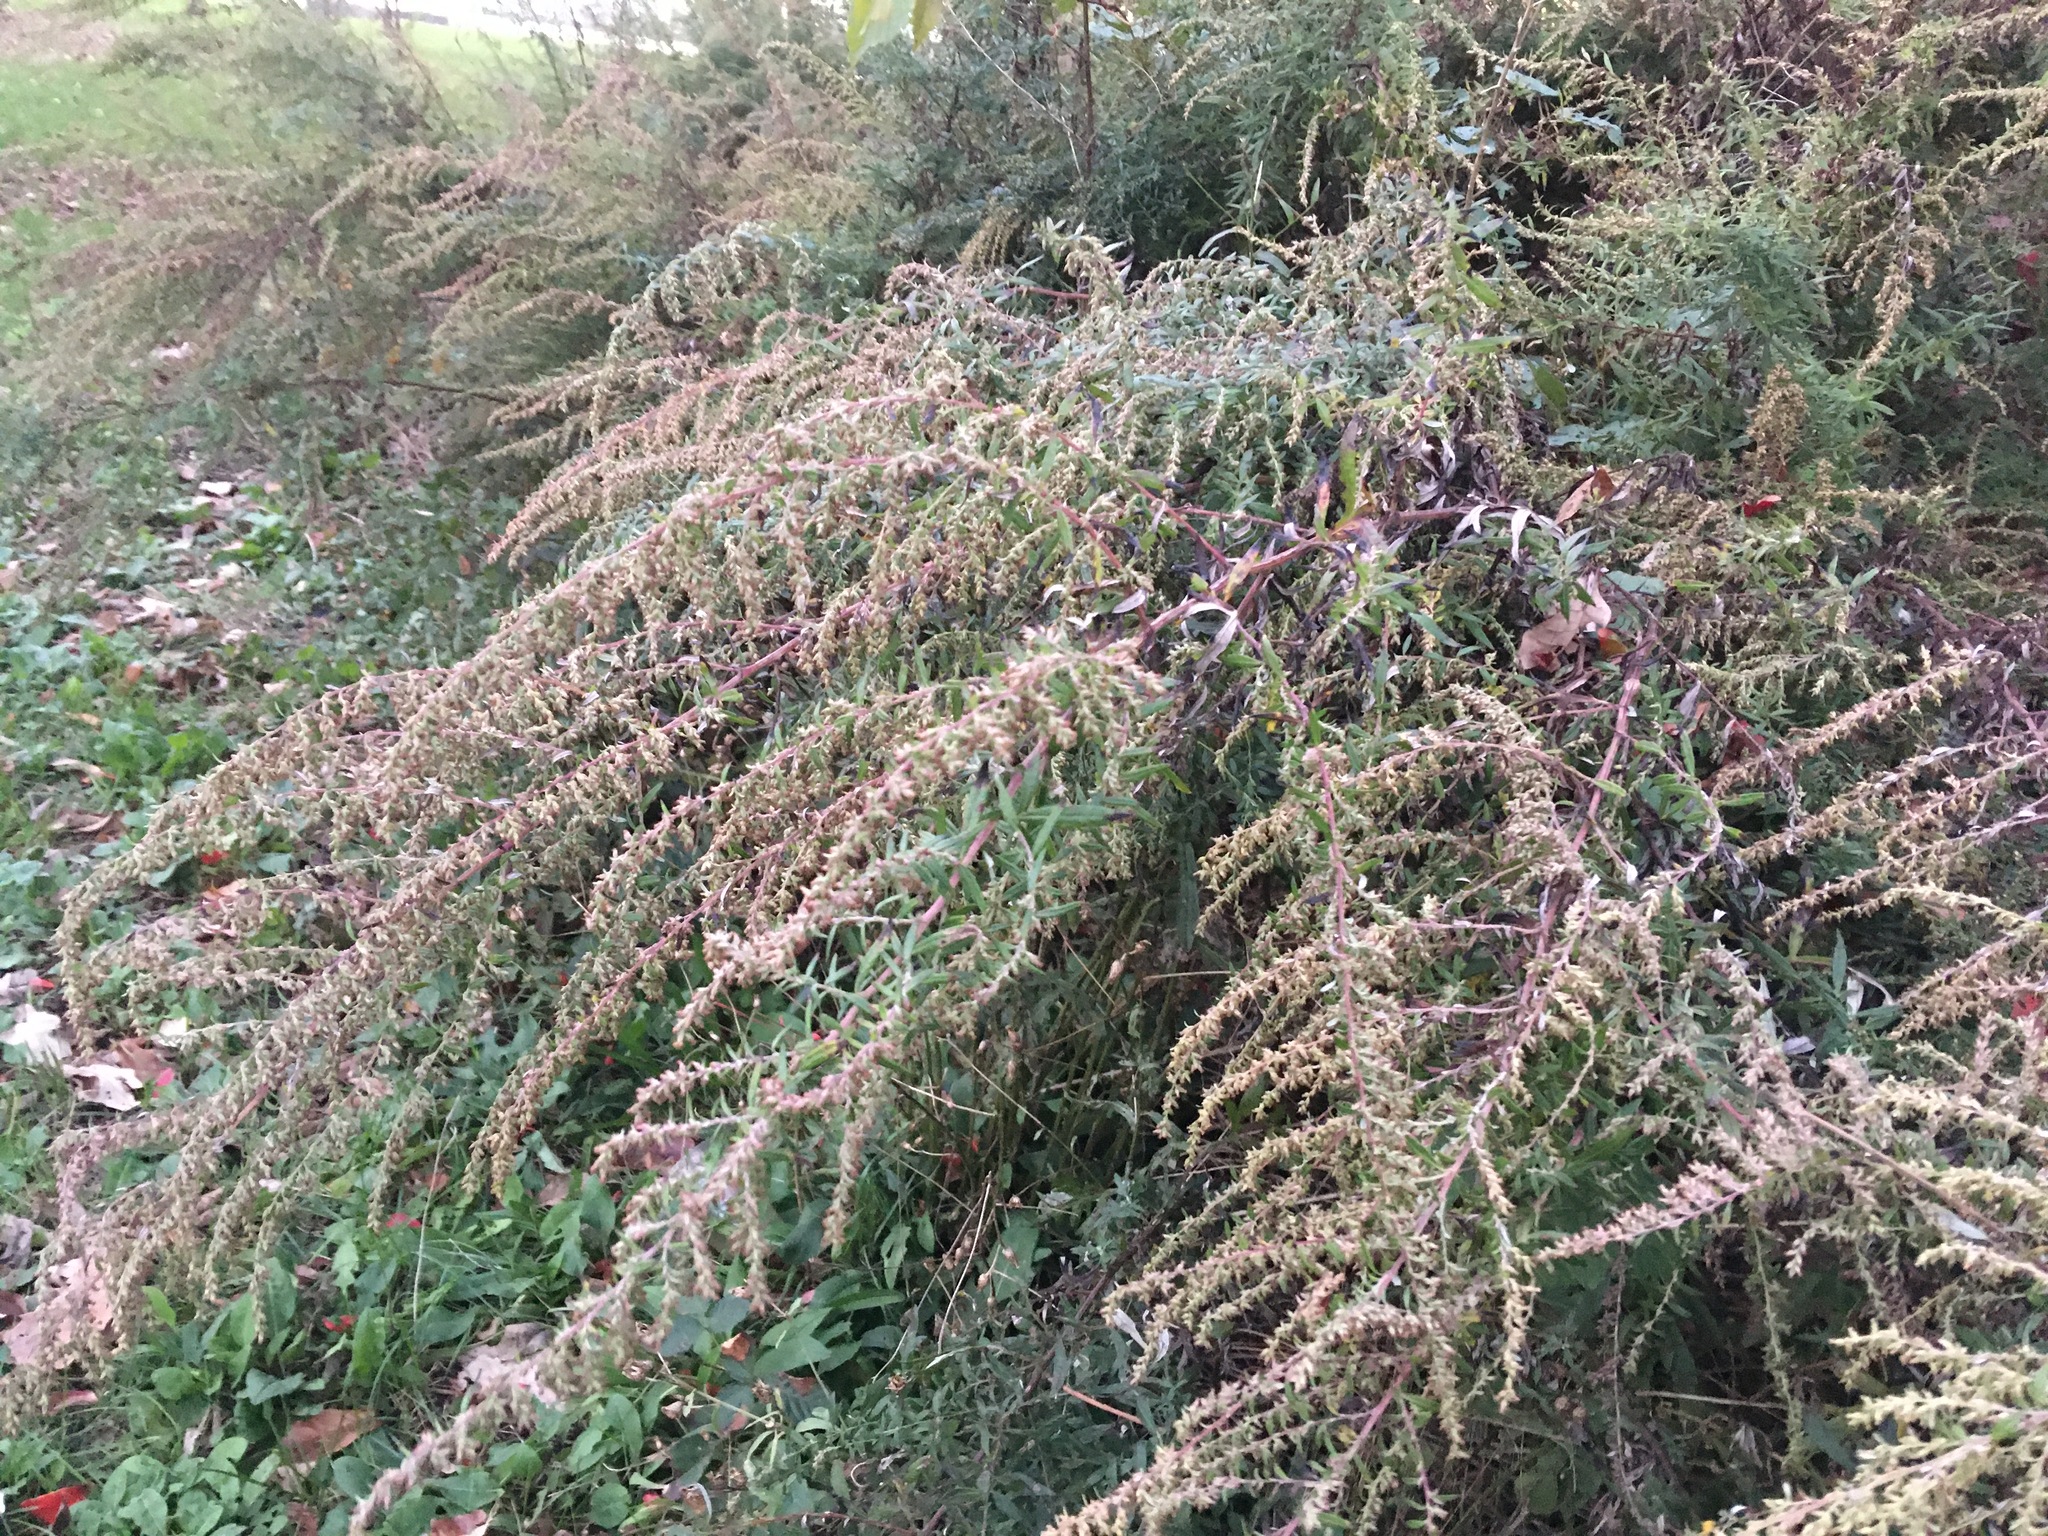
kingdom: Plantae
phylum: Tracheophyta
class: Magnoliopsida
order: Asterales
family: Asteraceae
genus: Artemisia
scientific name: Artemisia vulgaris
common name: Mugwort
